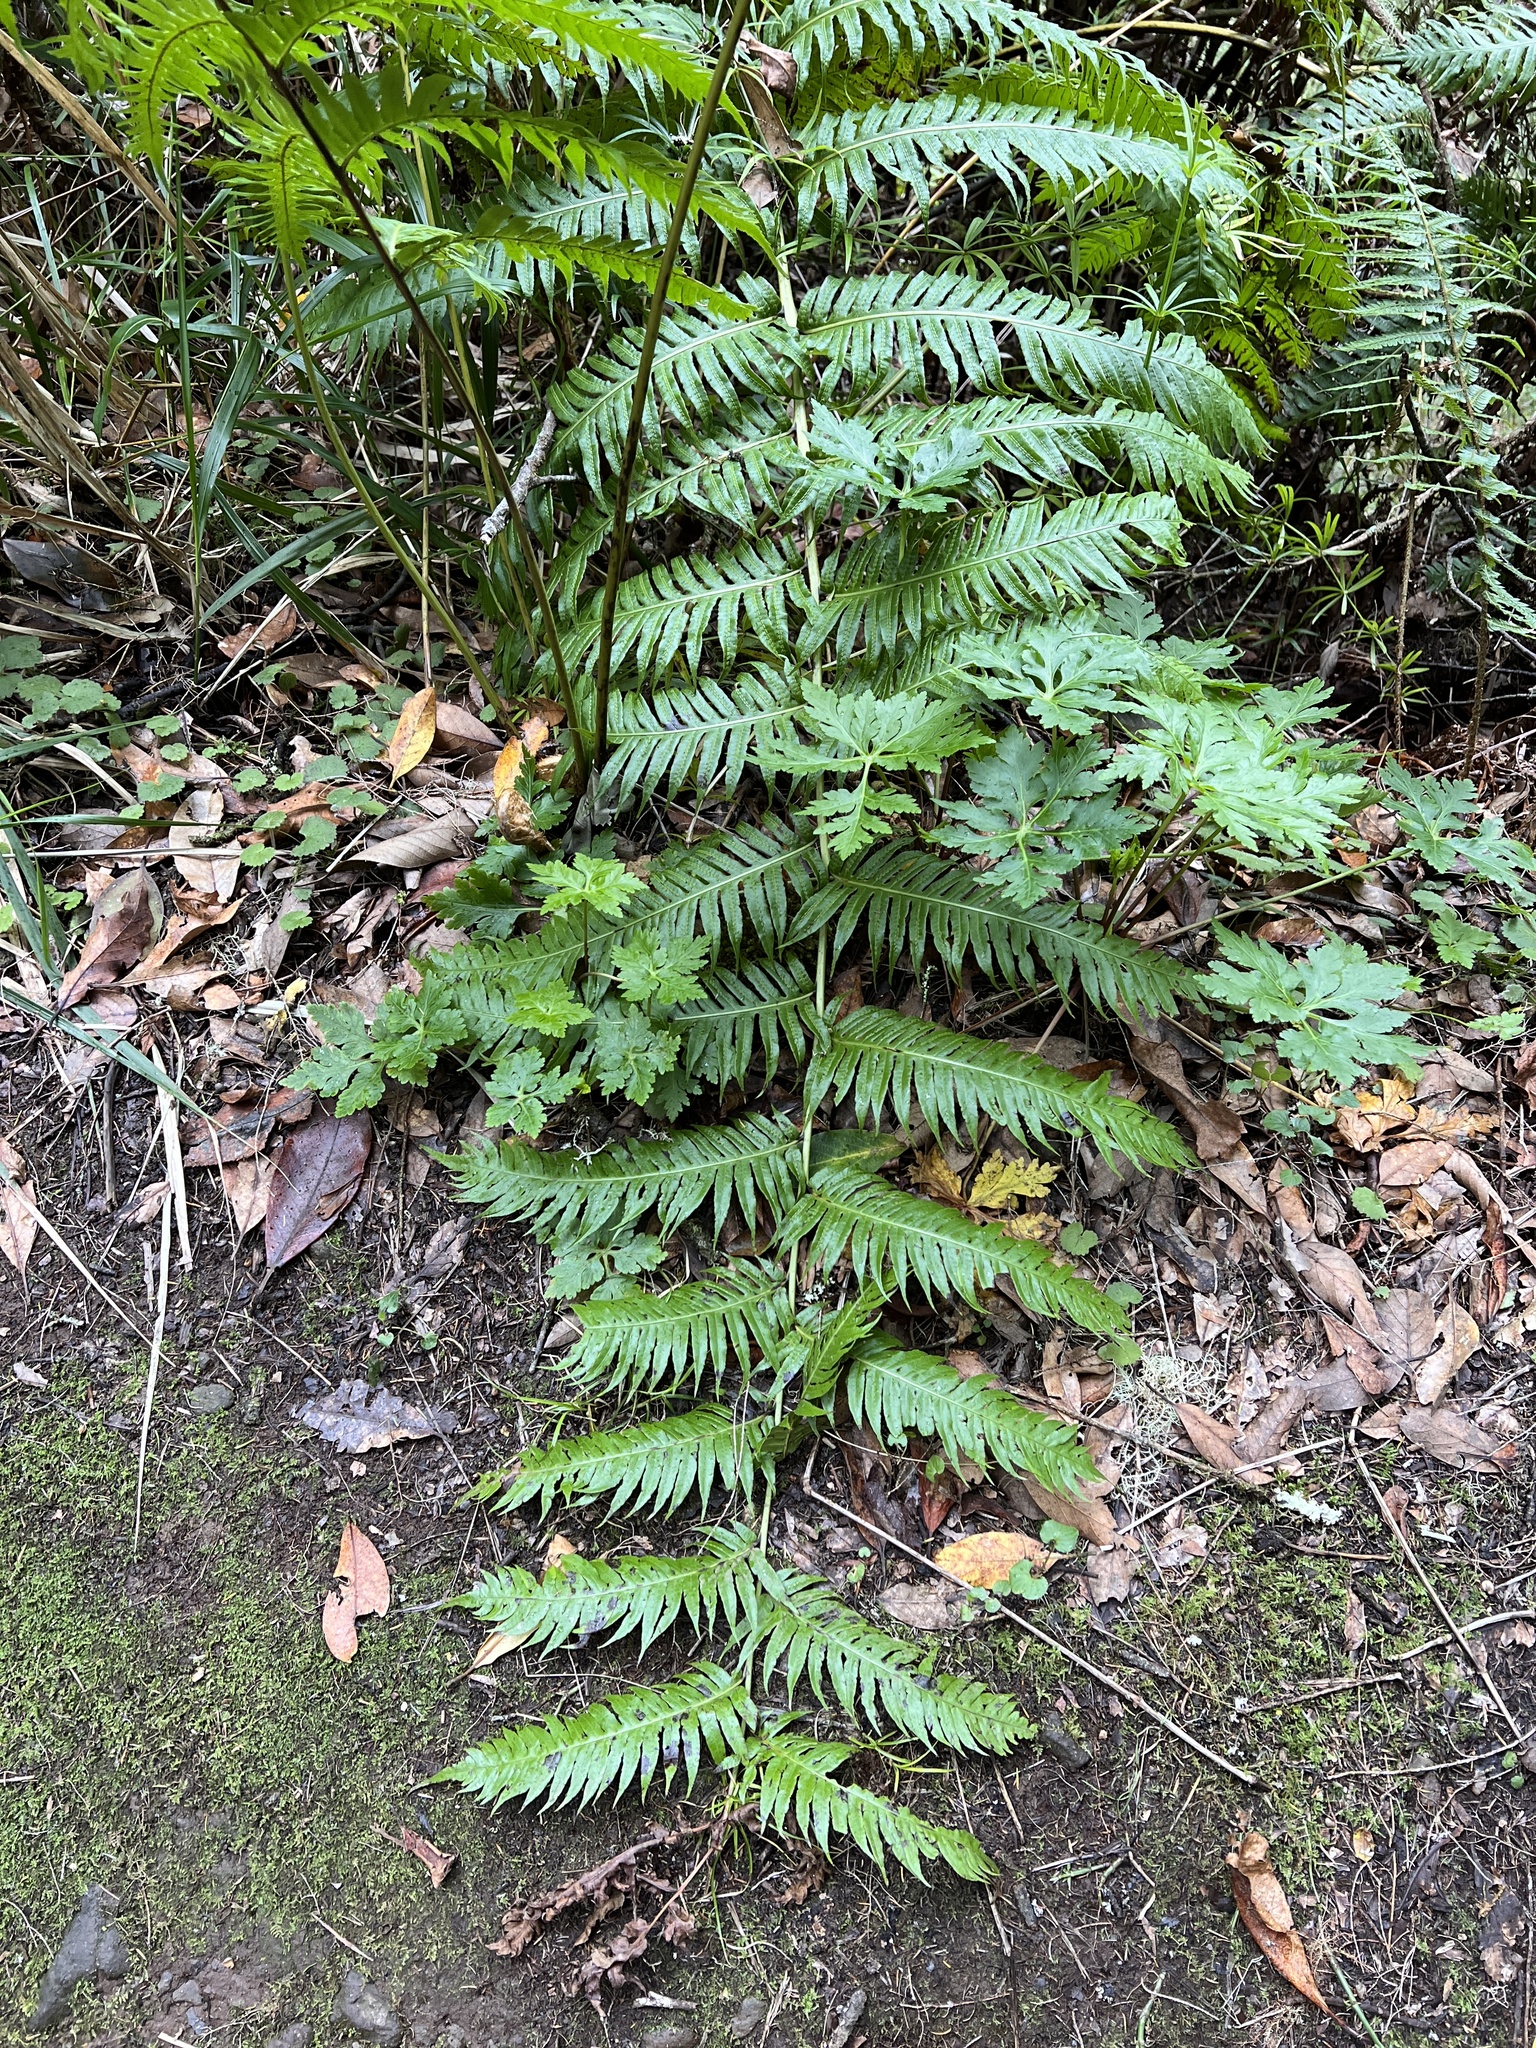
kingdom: Plantae
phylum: Tracheophyta
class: Polypodiopsida
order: Polypodiales
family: Blechnaceae
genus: Woodwardia
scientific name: Woodwardia radicans
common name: Rooting chainfern
